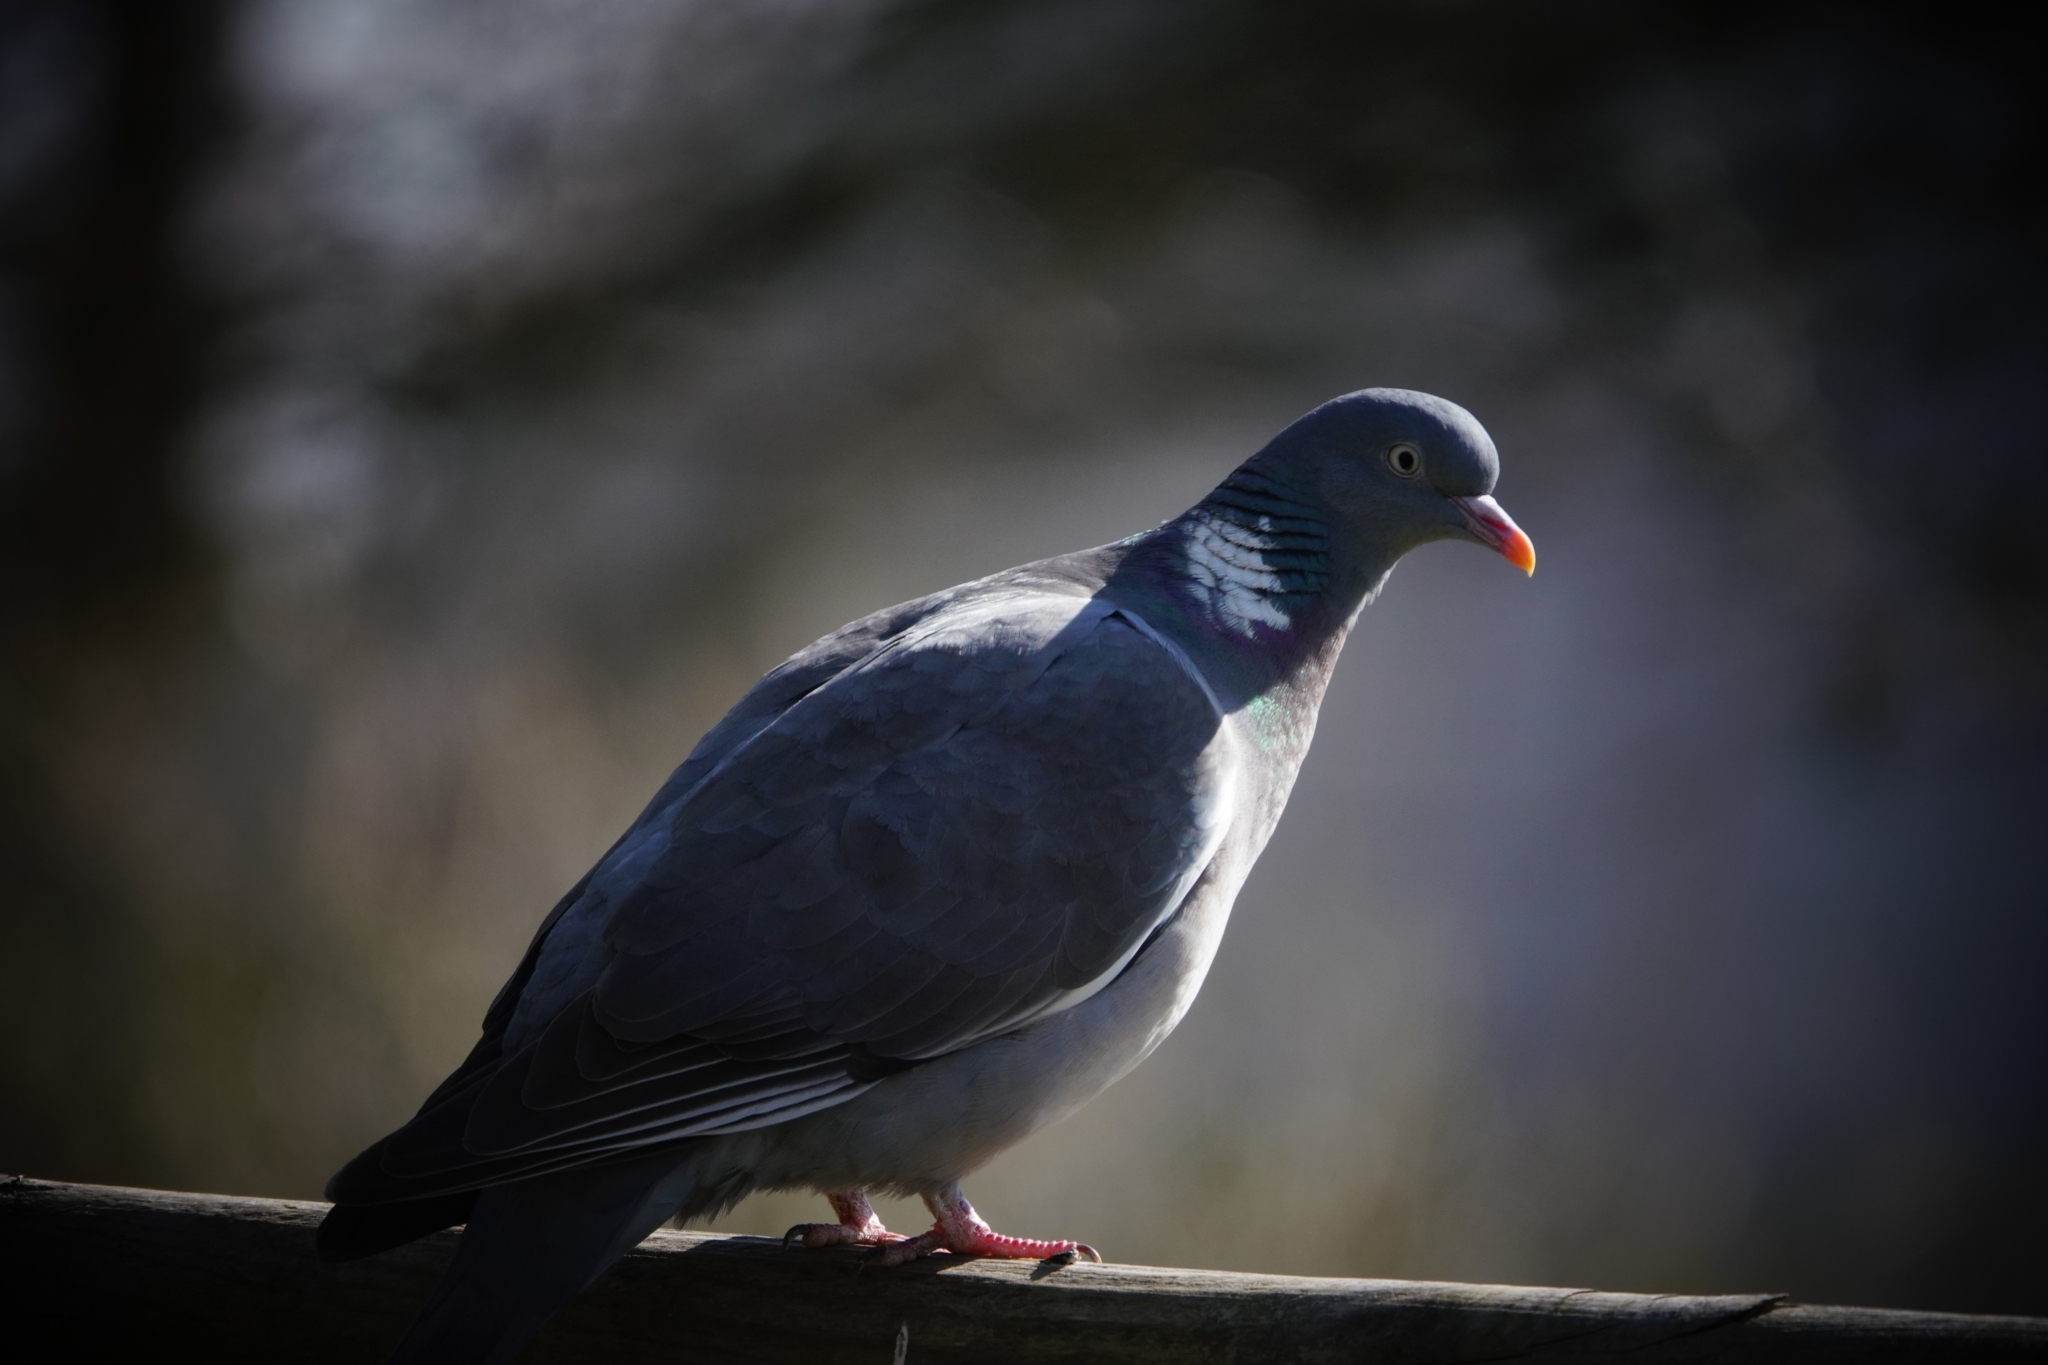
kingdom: Animalia
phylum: Chordata
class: Aves
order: Columbiformes
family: Columbidae
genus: Columba
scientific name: Columba palumbus
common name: Common wood pigeon
